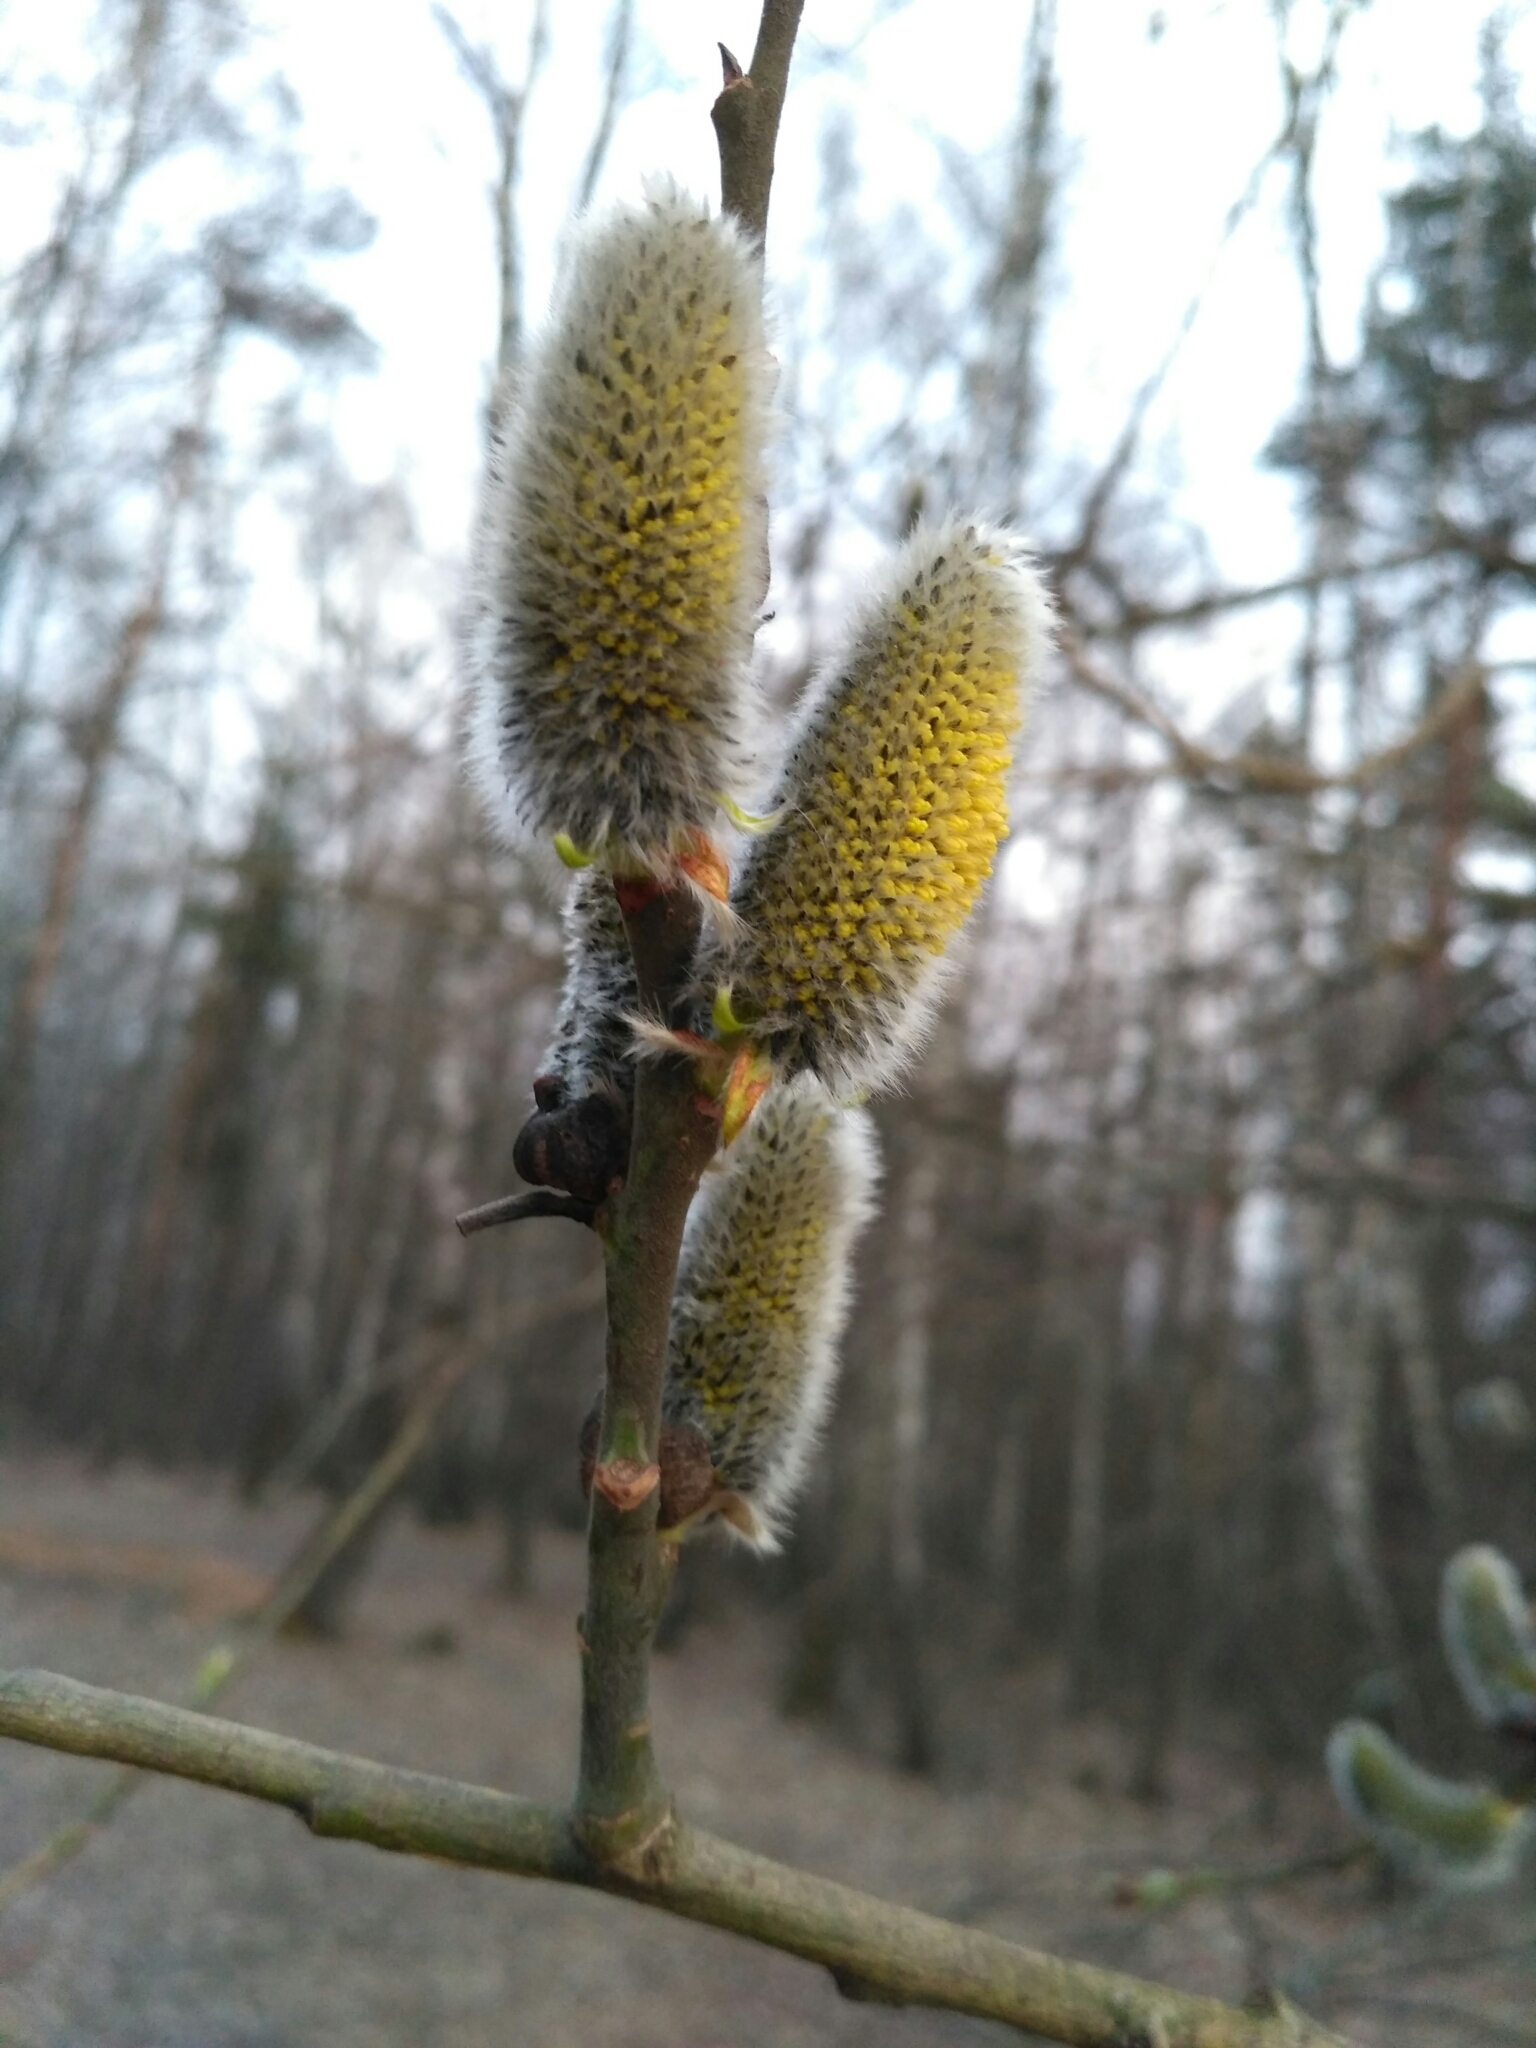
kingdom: Plantae
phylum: Tracheophyta
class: Magnoliopsida
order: Malpighiales
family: Salicaceae
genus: Salix
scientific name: Salix caprea
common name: Goat willow
